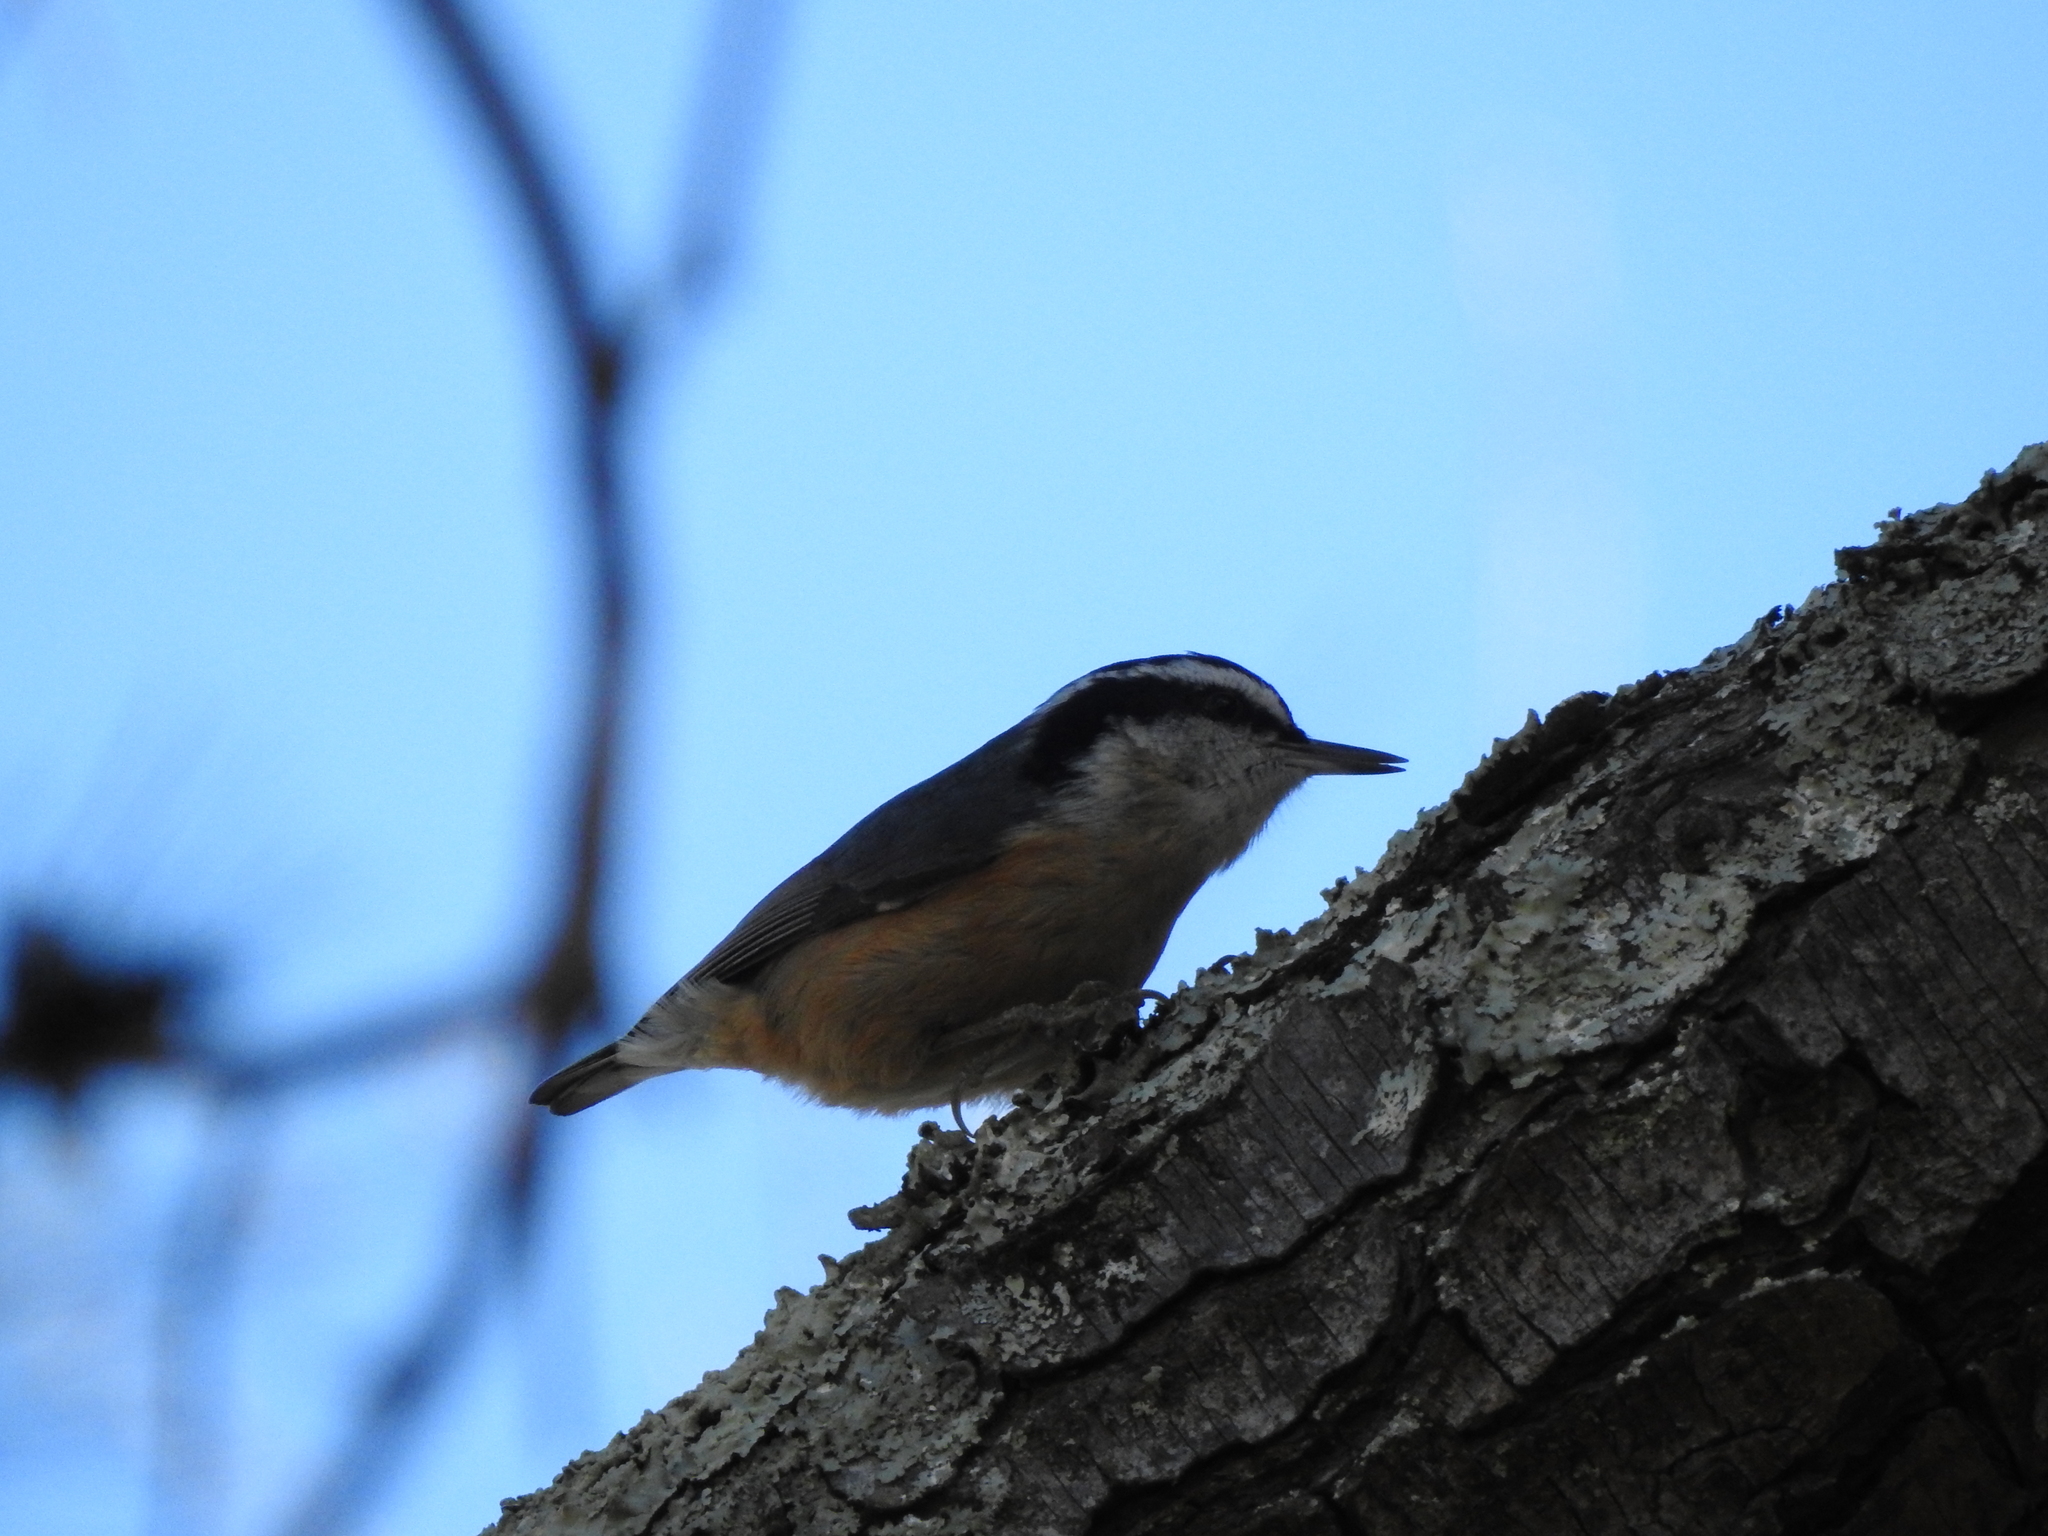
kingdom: Animalia
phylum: Chordata
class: Aves
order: Passeriformes
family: Sittidae
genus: Sitta
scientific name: Sitta canadensis
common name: Red-breasted nuthatch
